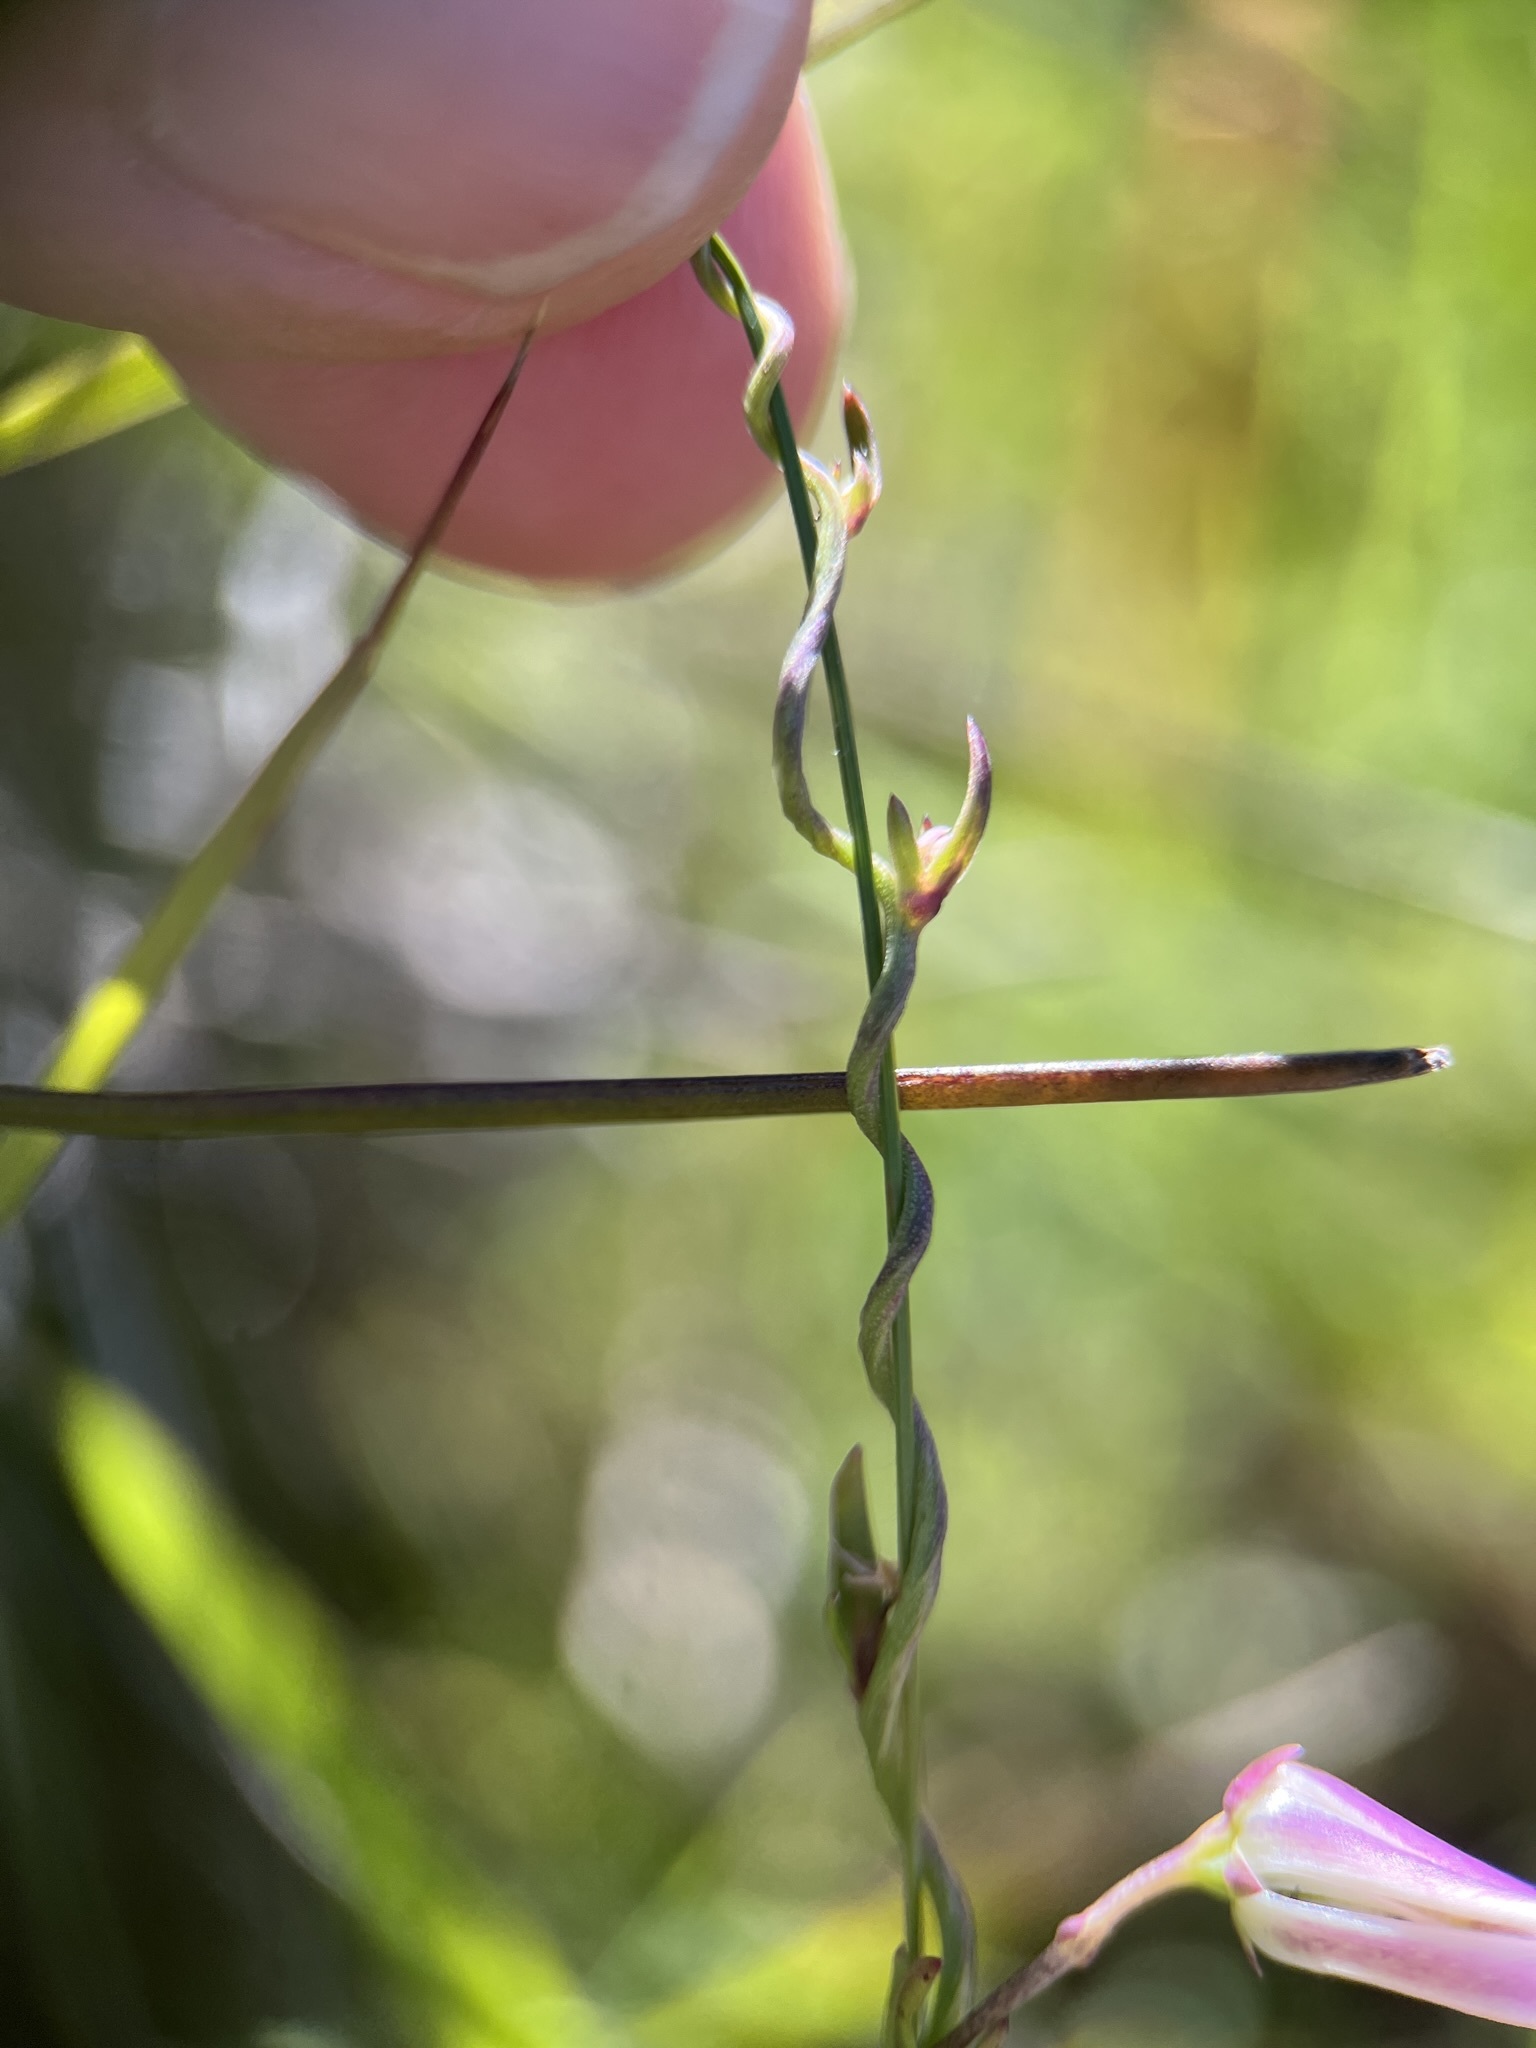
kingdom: Plantae
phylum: Tracheophyta
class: Magnoliopsida
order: Asterales
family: Campanulaceae
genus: Cyphia
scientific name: Cyphia digitata
